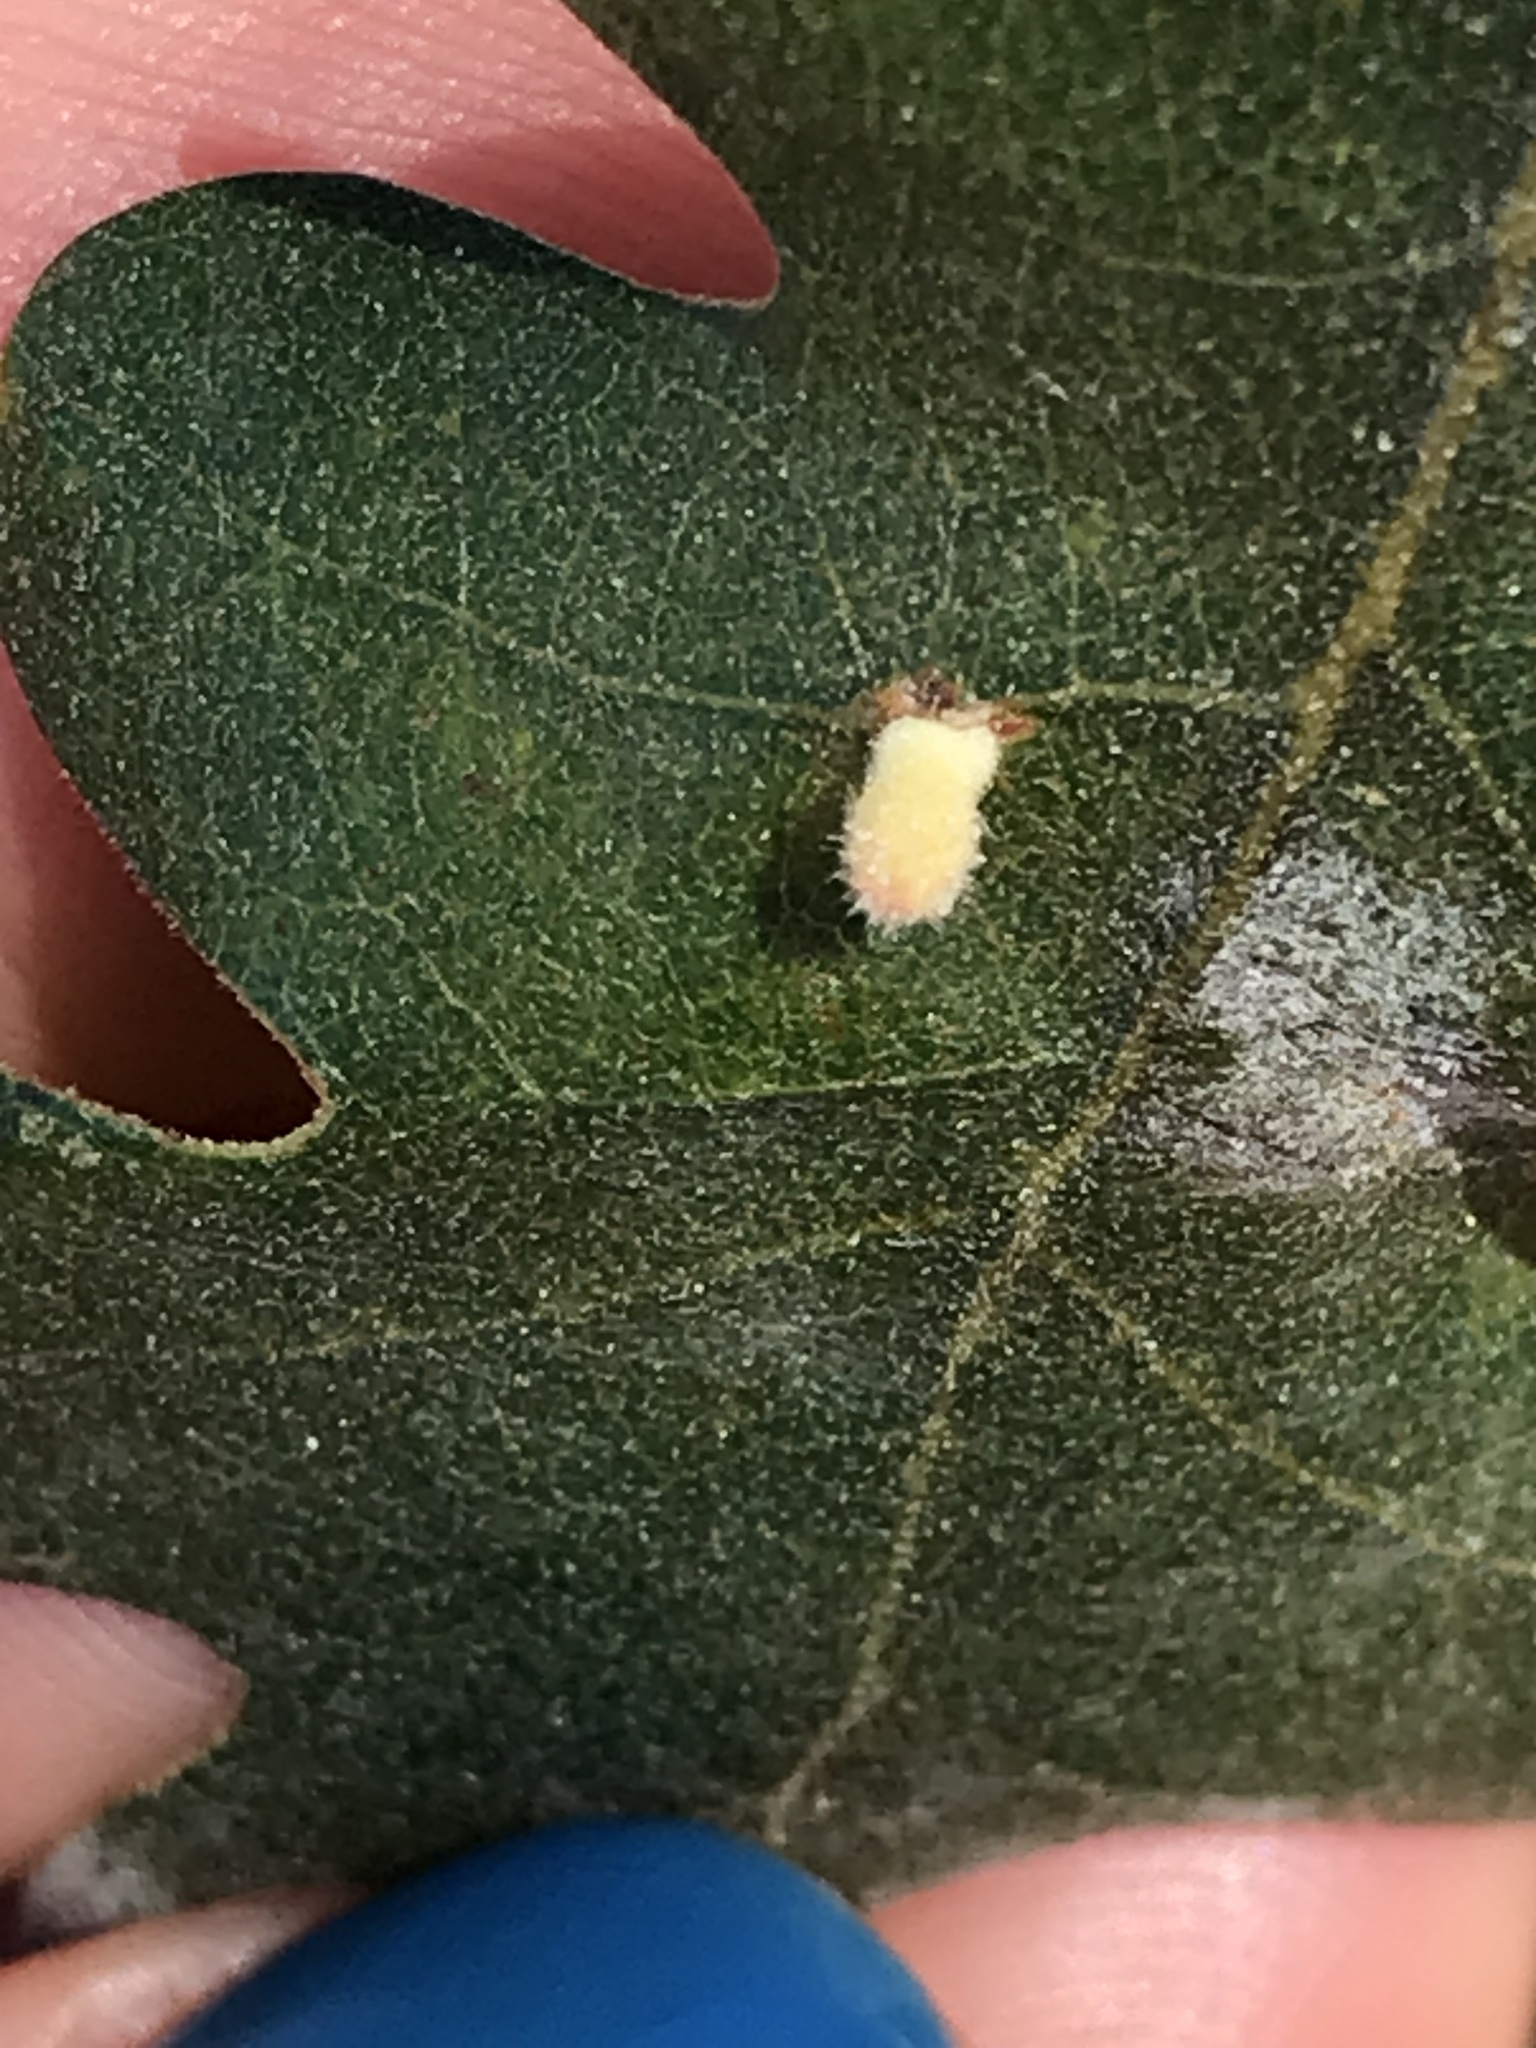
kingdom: Animalia
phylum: Arthropoda
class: Insecta
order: Hymenoptera
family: Cynipidae
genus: Atrusca
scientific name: Atrusca
